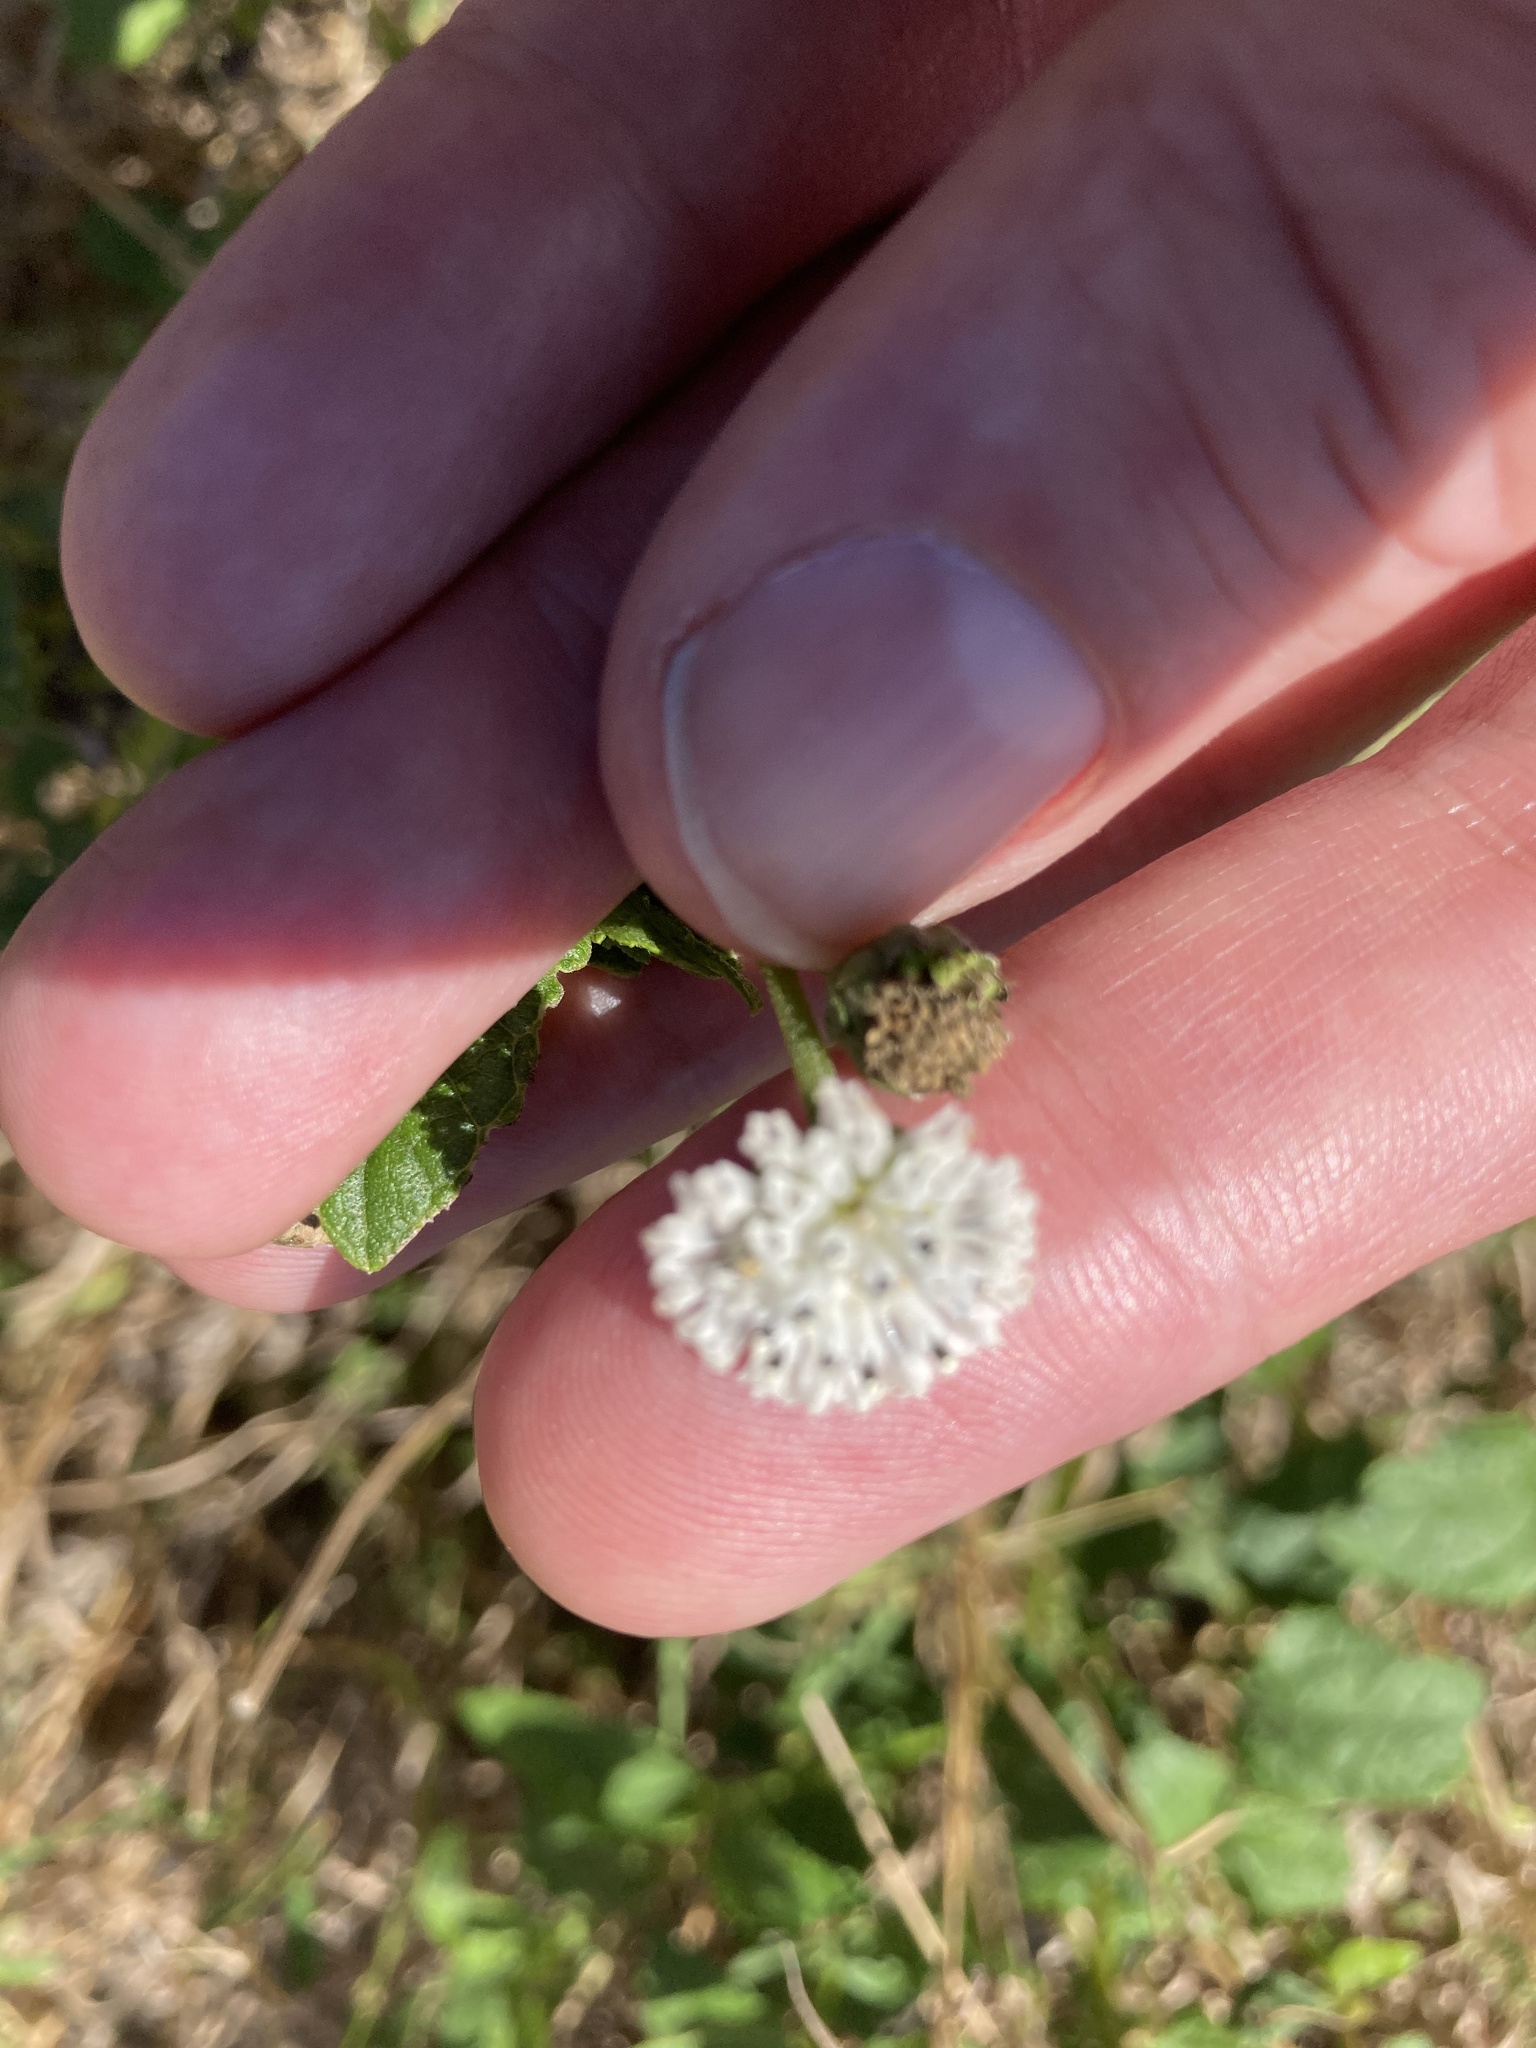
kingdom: Plantae
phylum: Tracheophyta
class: Magnoliopsida
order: Asterales
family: Asteraceae
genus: Melanthera
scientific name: Melanthera nivea
